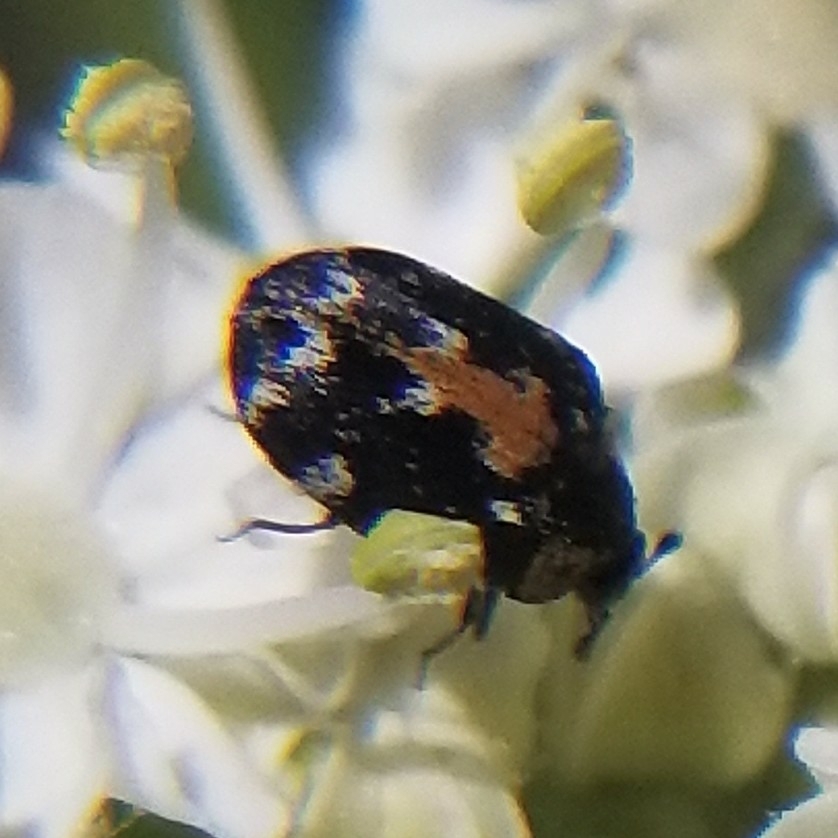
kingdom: Animalia
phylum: Arthropoda
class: Insecta
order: Coleoptera
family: Dermestidae
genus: Anthrenus
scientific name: Anthrenus lepidus
